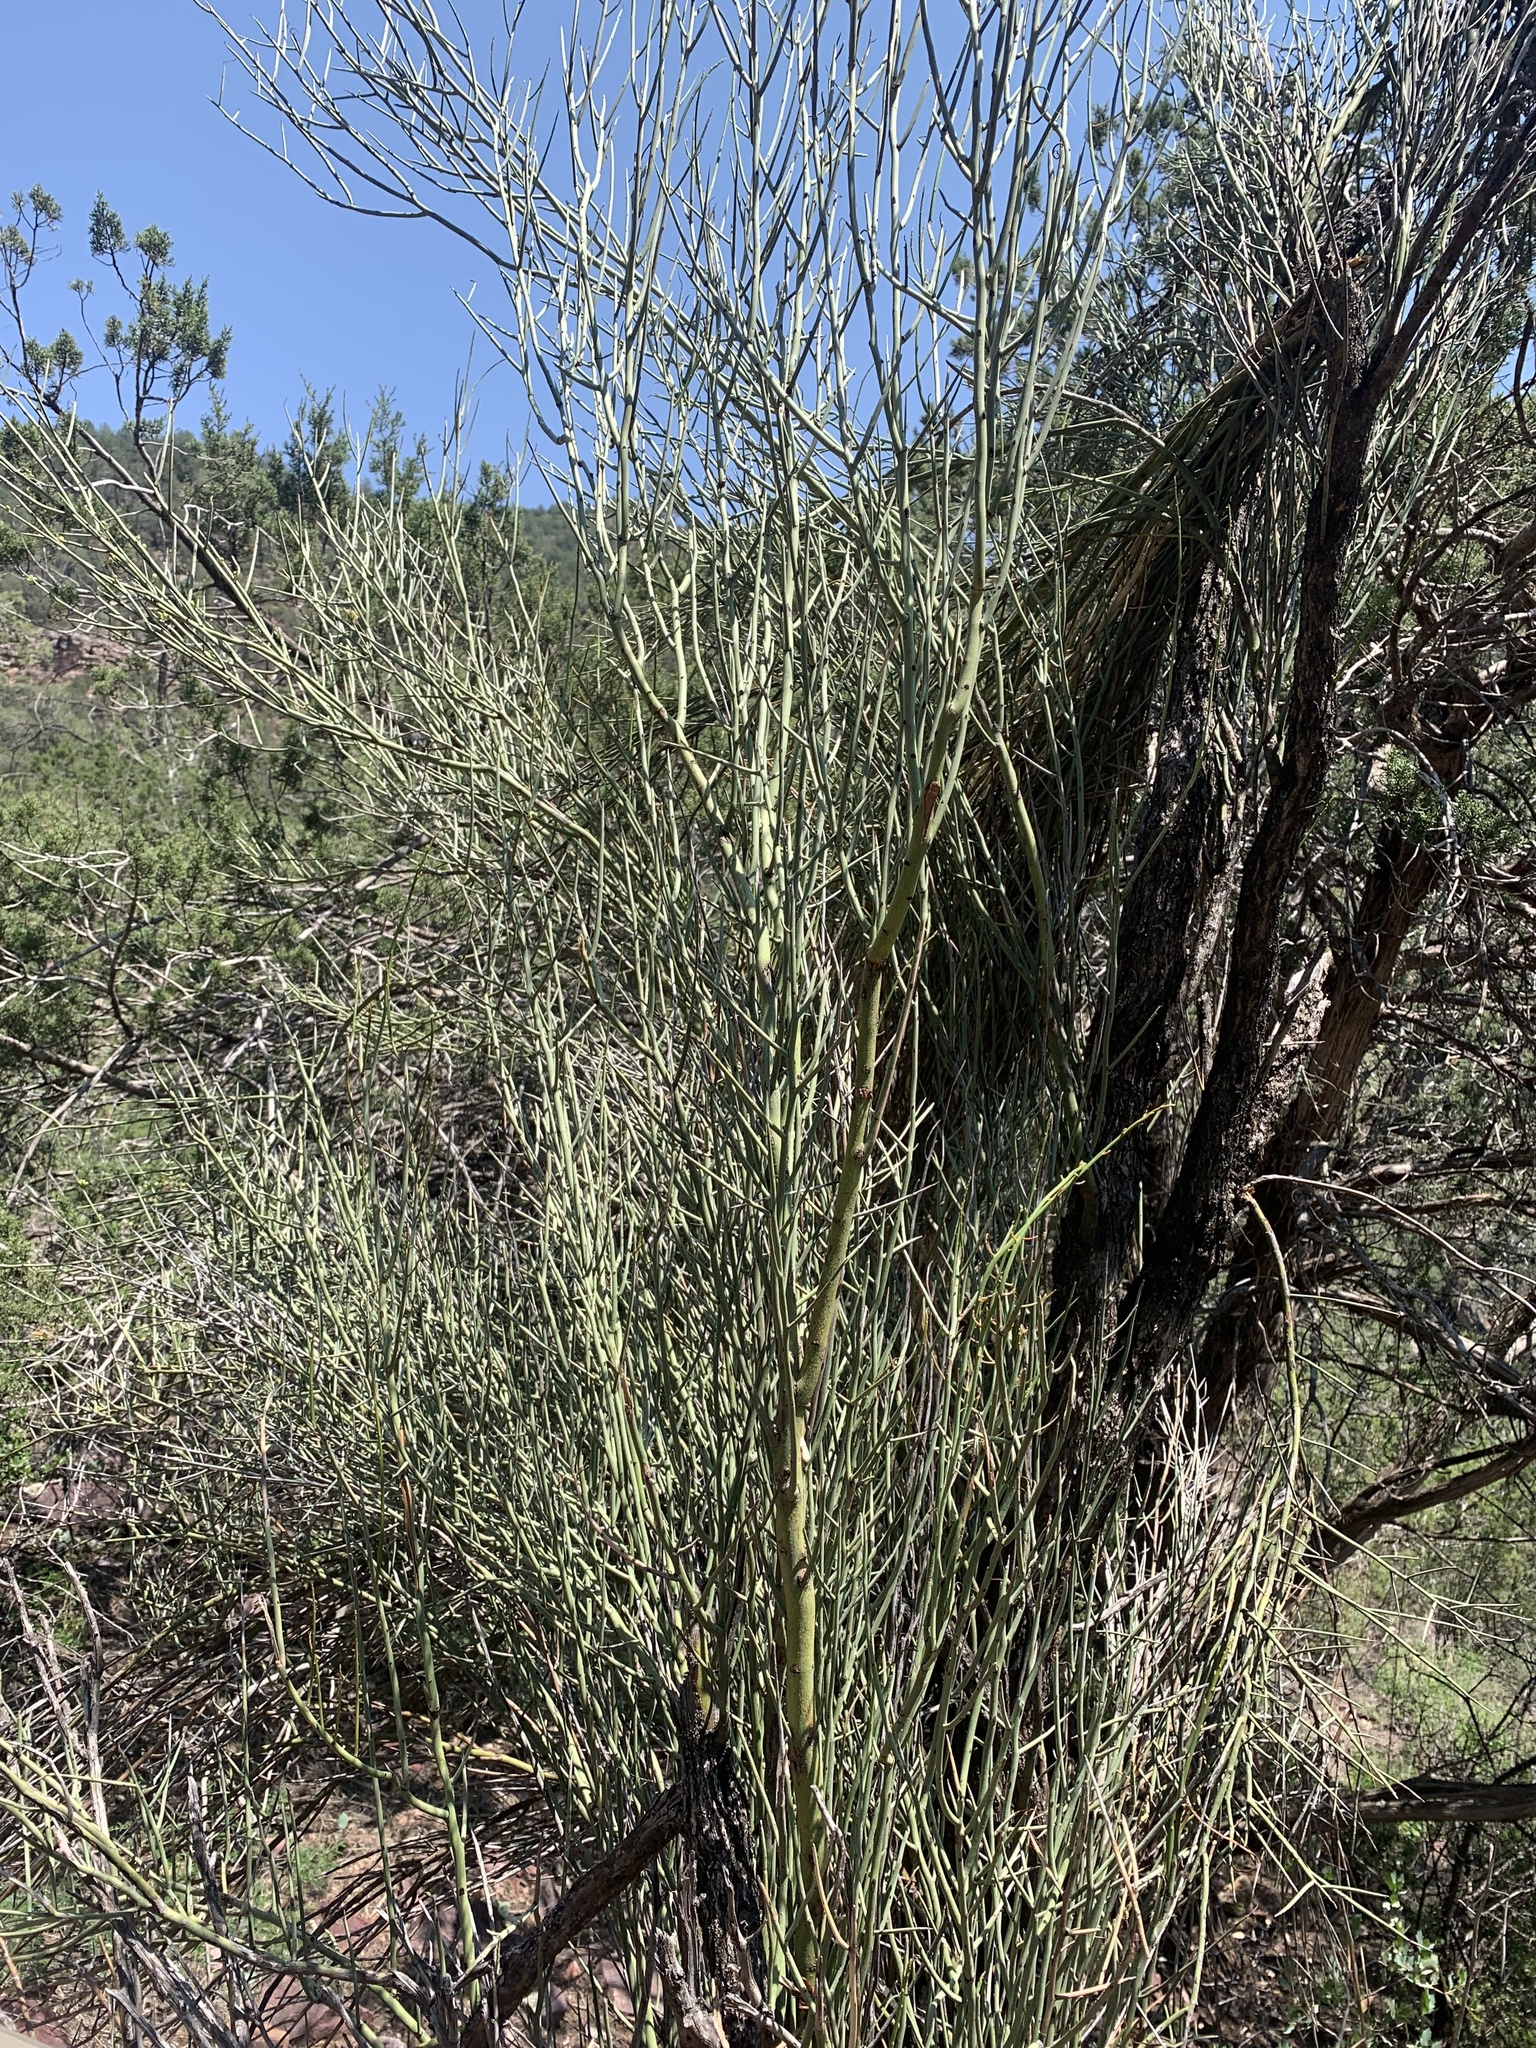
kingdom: Plantae
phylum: Tracheophyta
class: Magnoliopsida
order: Celastrales
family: Celastraceae
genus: Canotia
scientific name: Canotia holacantha
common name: Crucifixion thorns
